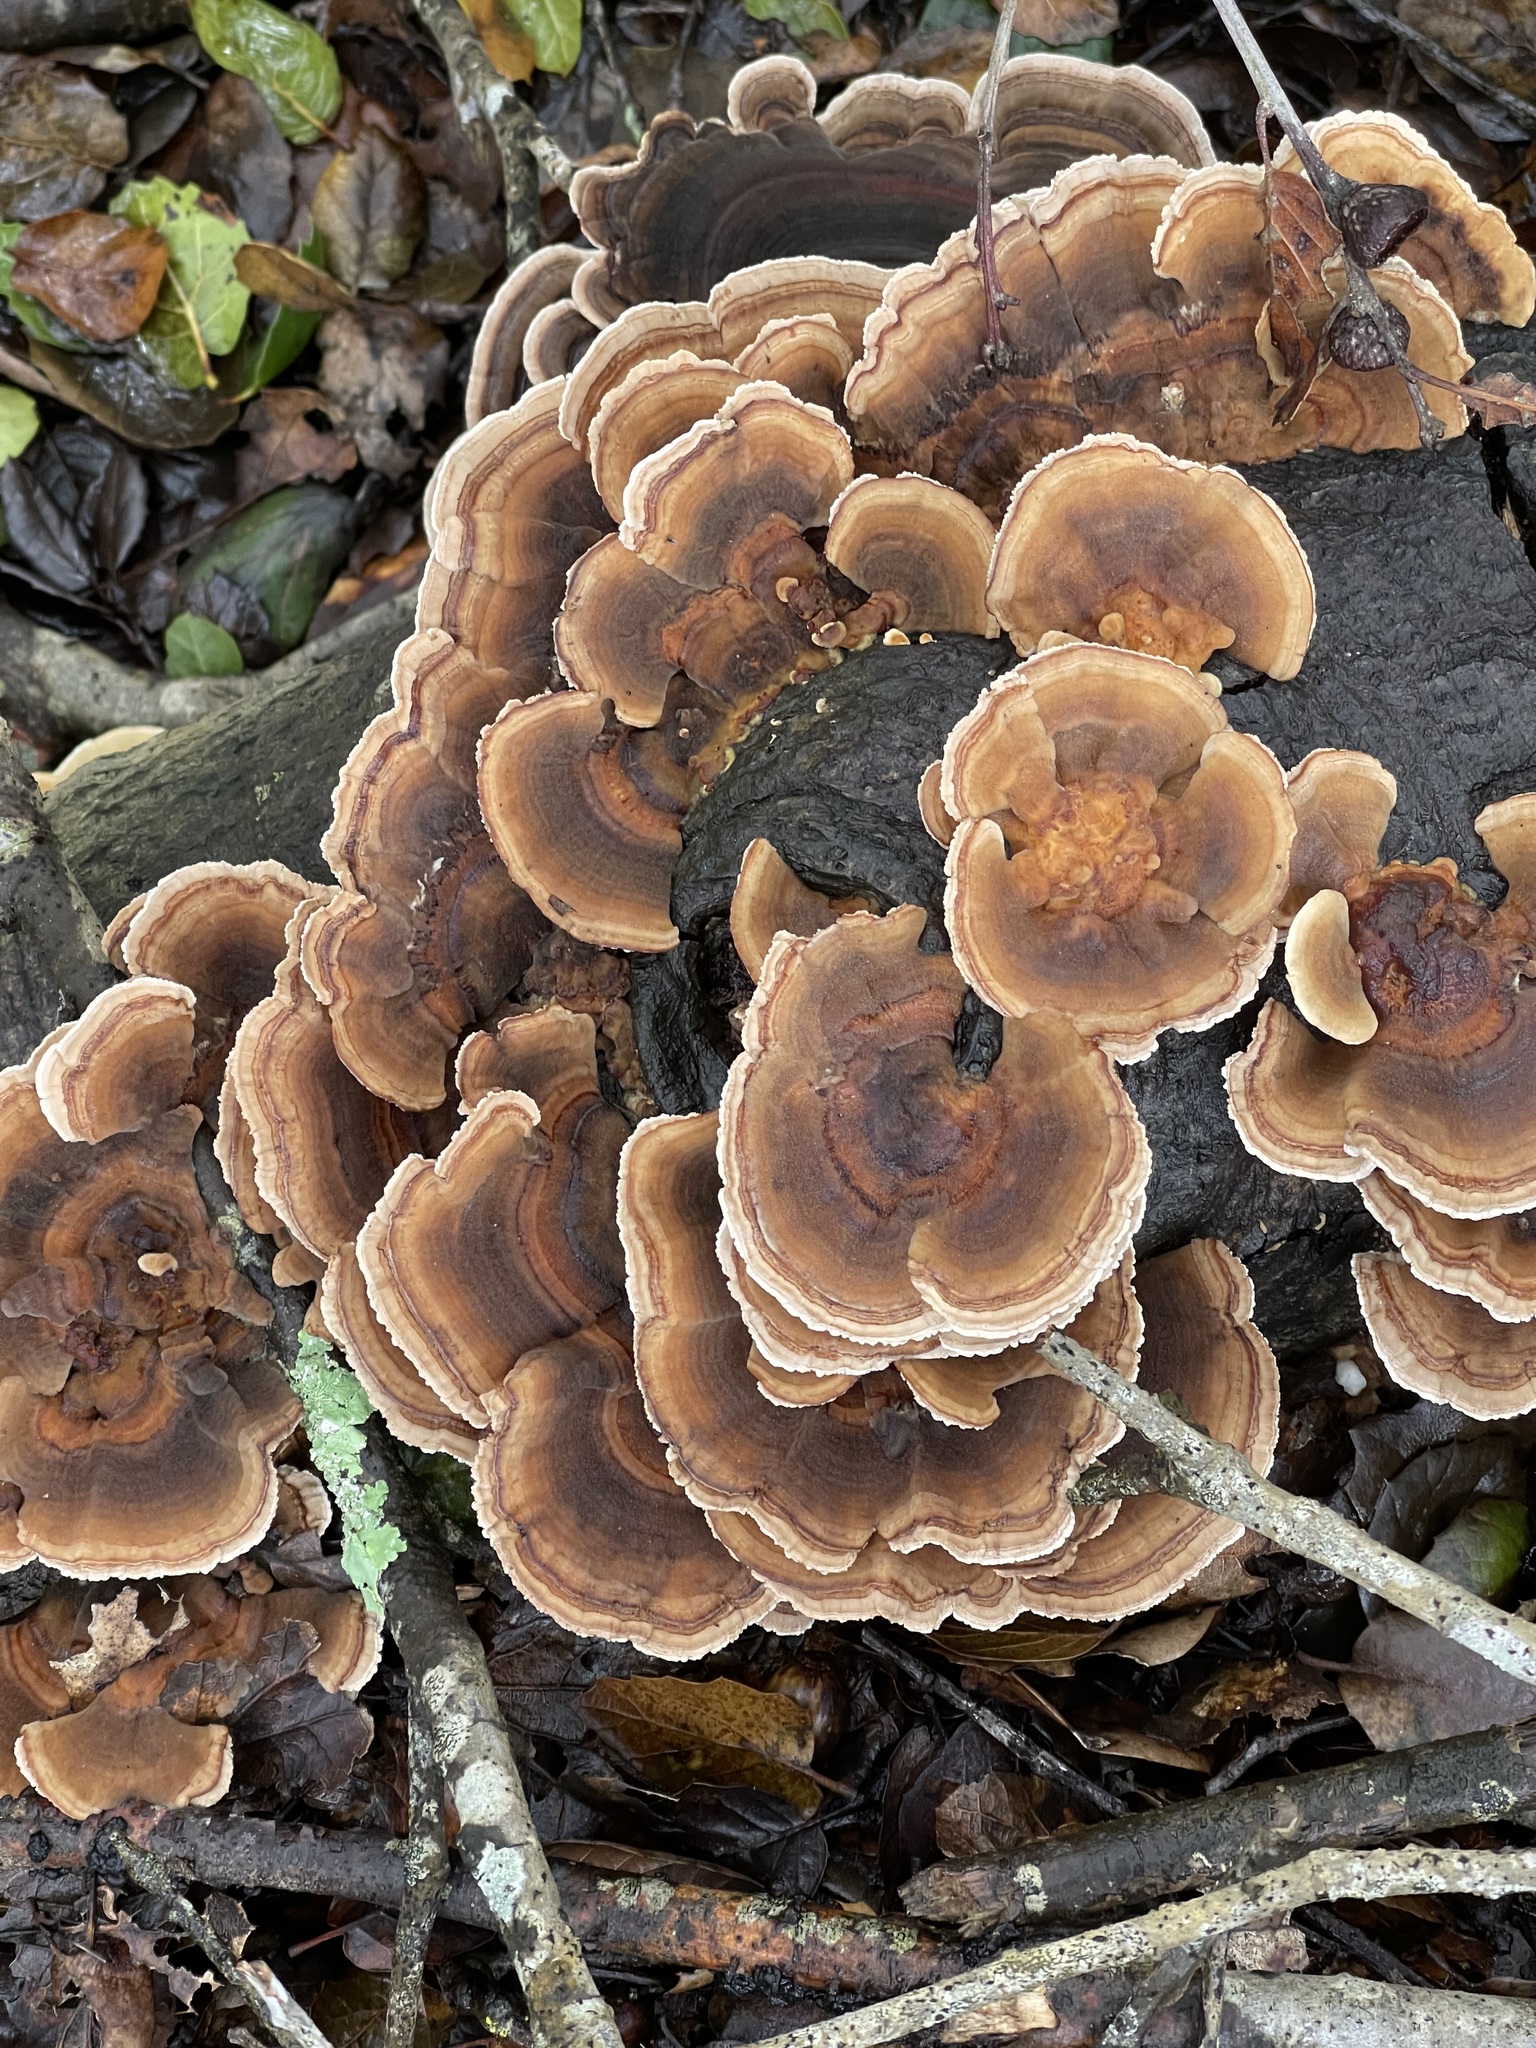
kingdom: Fungi
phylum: Basidiomycota
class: Agaricomycetes
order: Polyporales
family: Polyporaceae
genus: Trametes
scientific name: Trametes versicolor
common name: Turkeytail
